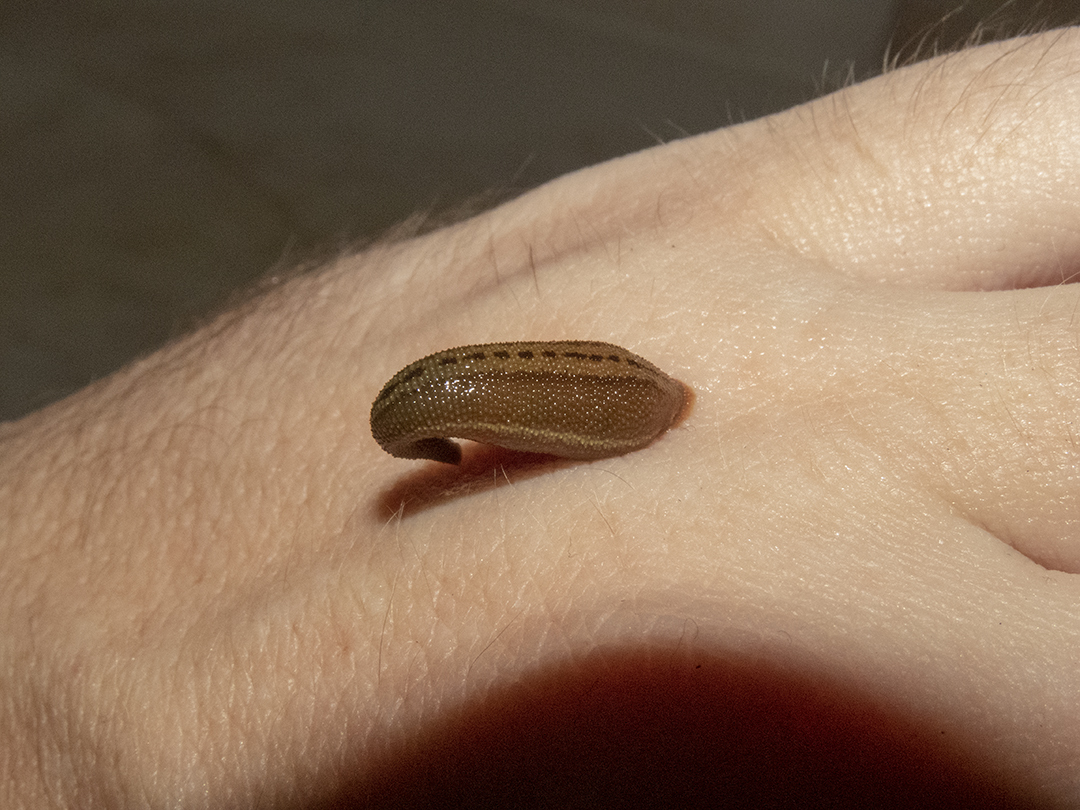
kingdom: Animalia
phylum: Annelida
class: Clitellata
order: Arhynchobdellida
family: Haemadipsidae
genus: Haemadipsa
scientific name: Haemadipsa interrupta
